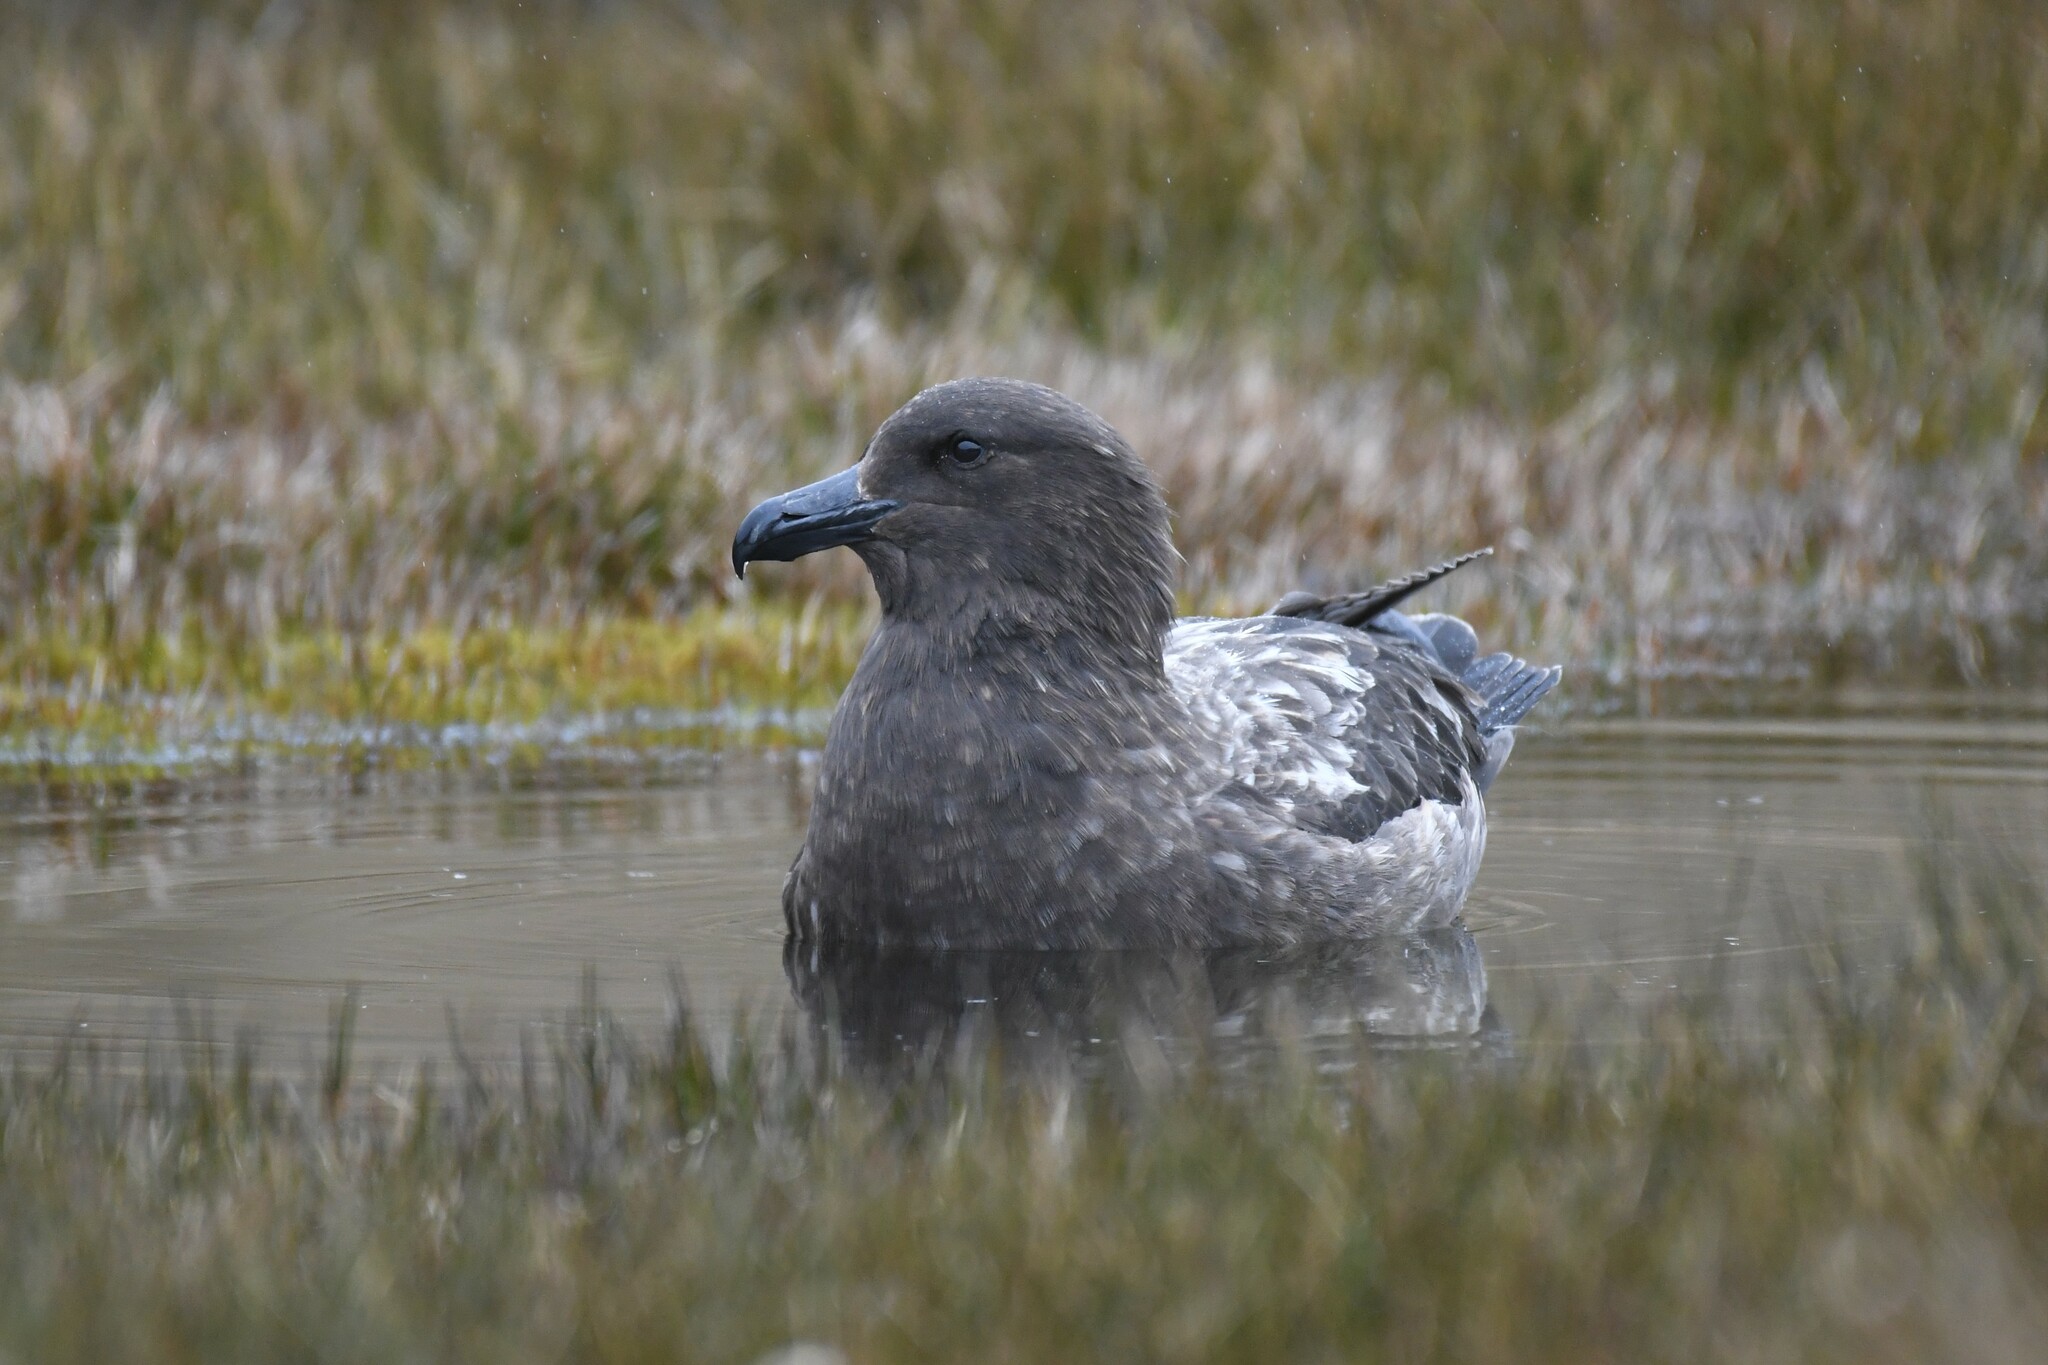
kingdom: Animalia
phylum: Chordata
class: Aves
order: Charadriiformes
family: Stercorariidae
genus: Stercorarius
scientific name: Stercorarius antarcticus
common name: Brown skua
